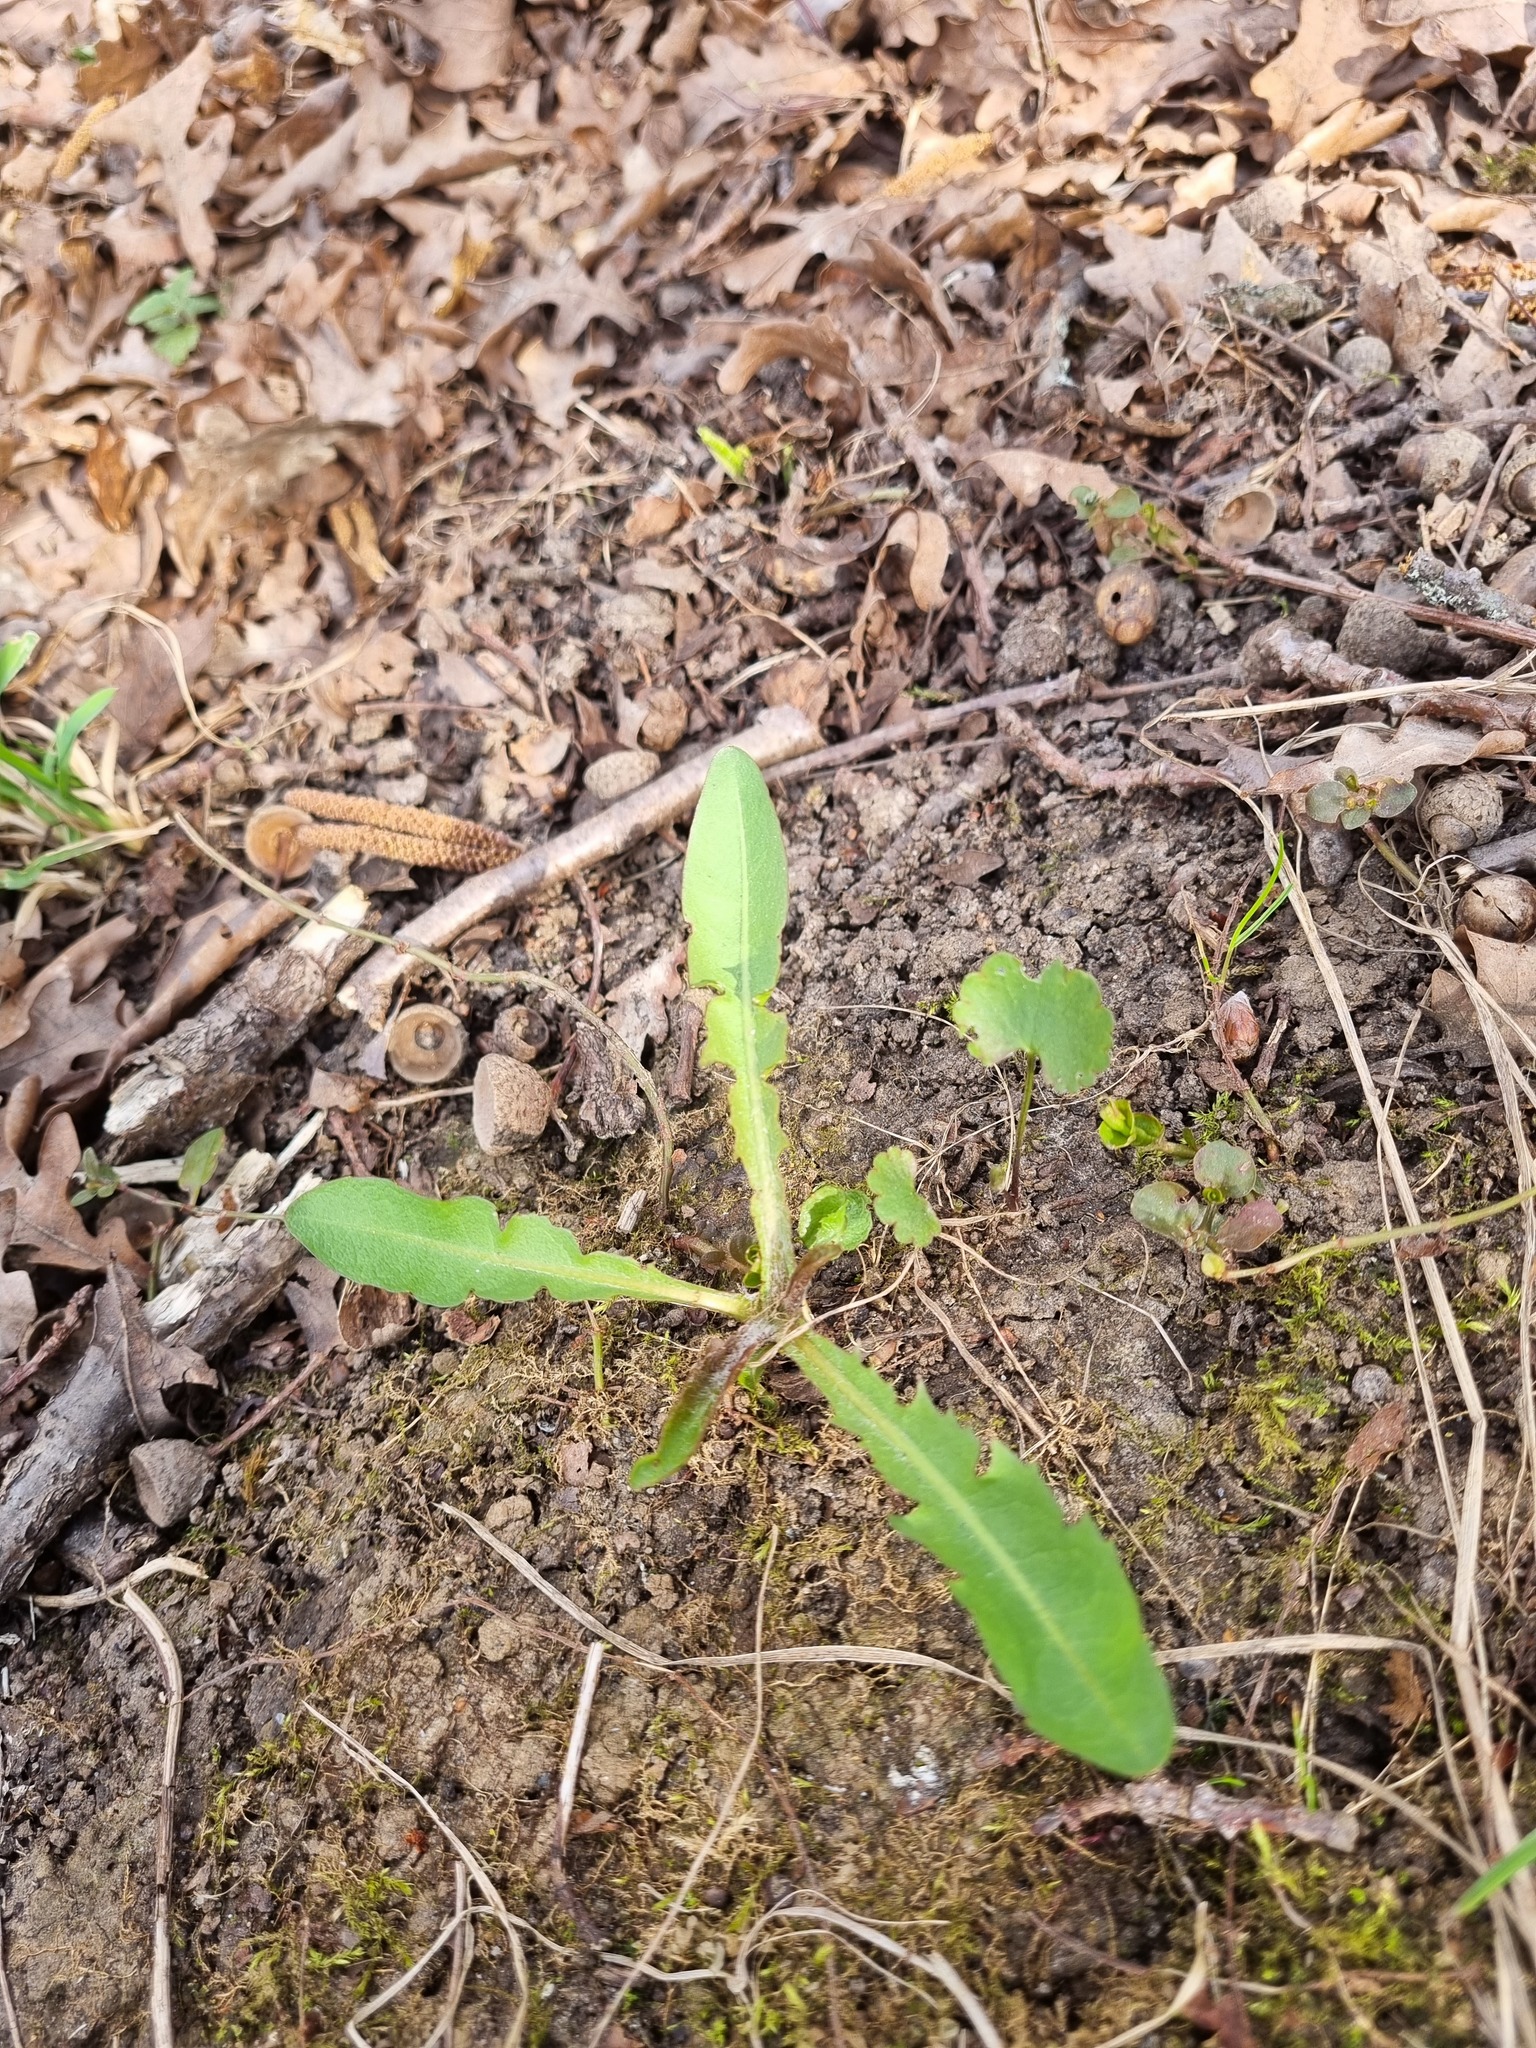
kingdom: Plantae
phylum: Tracheophyta
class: Magnoliopsida
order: Asterales
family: Asteraceae
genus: Taraxacum
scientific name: Taraxacum officinale
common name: Common dandelion
